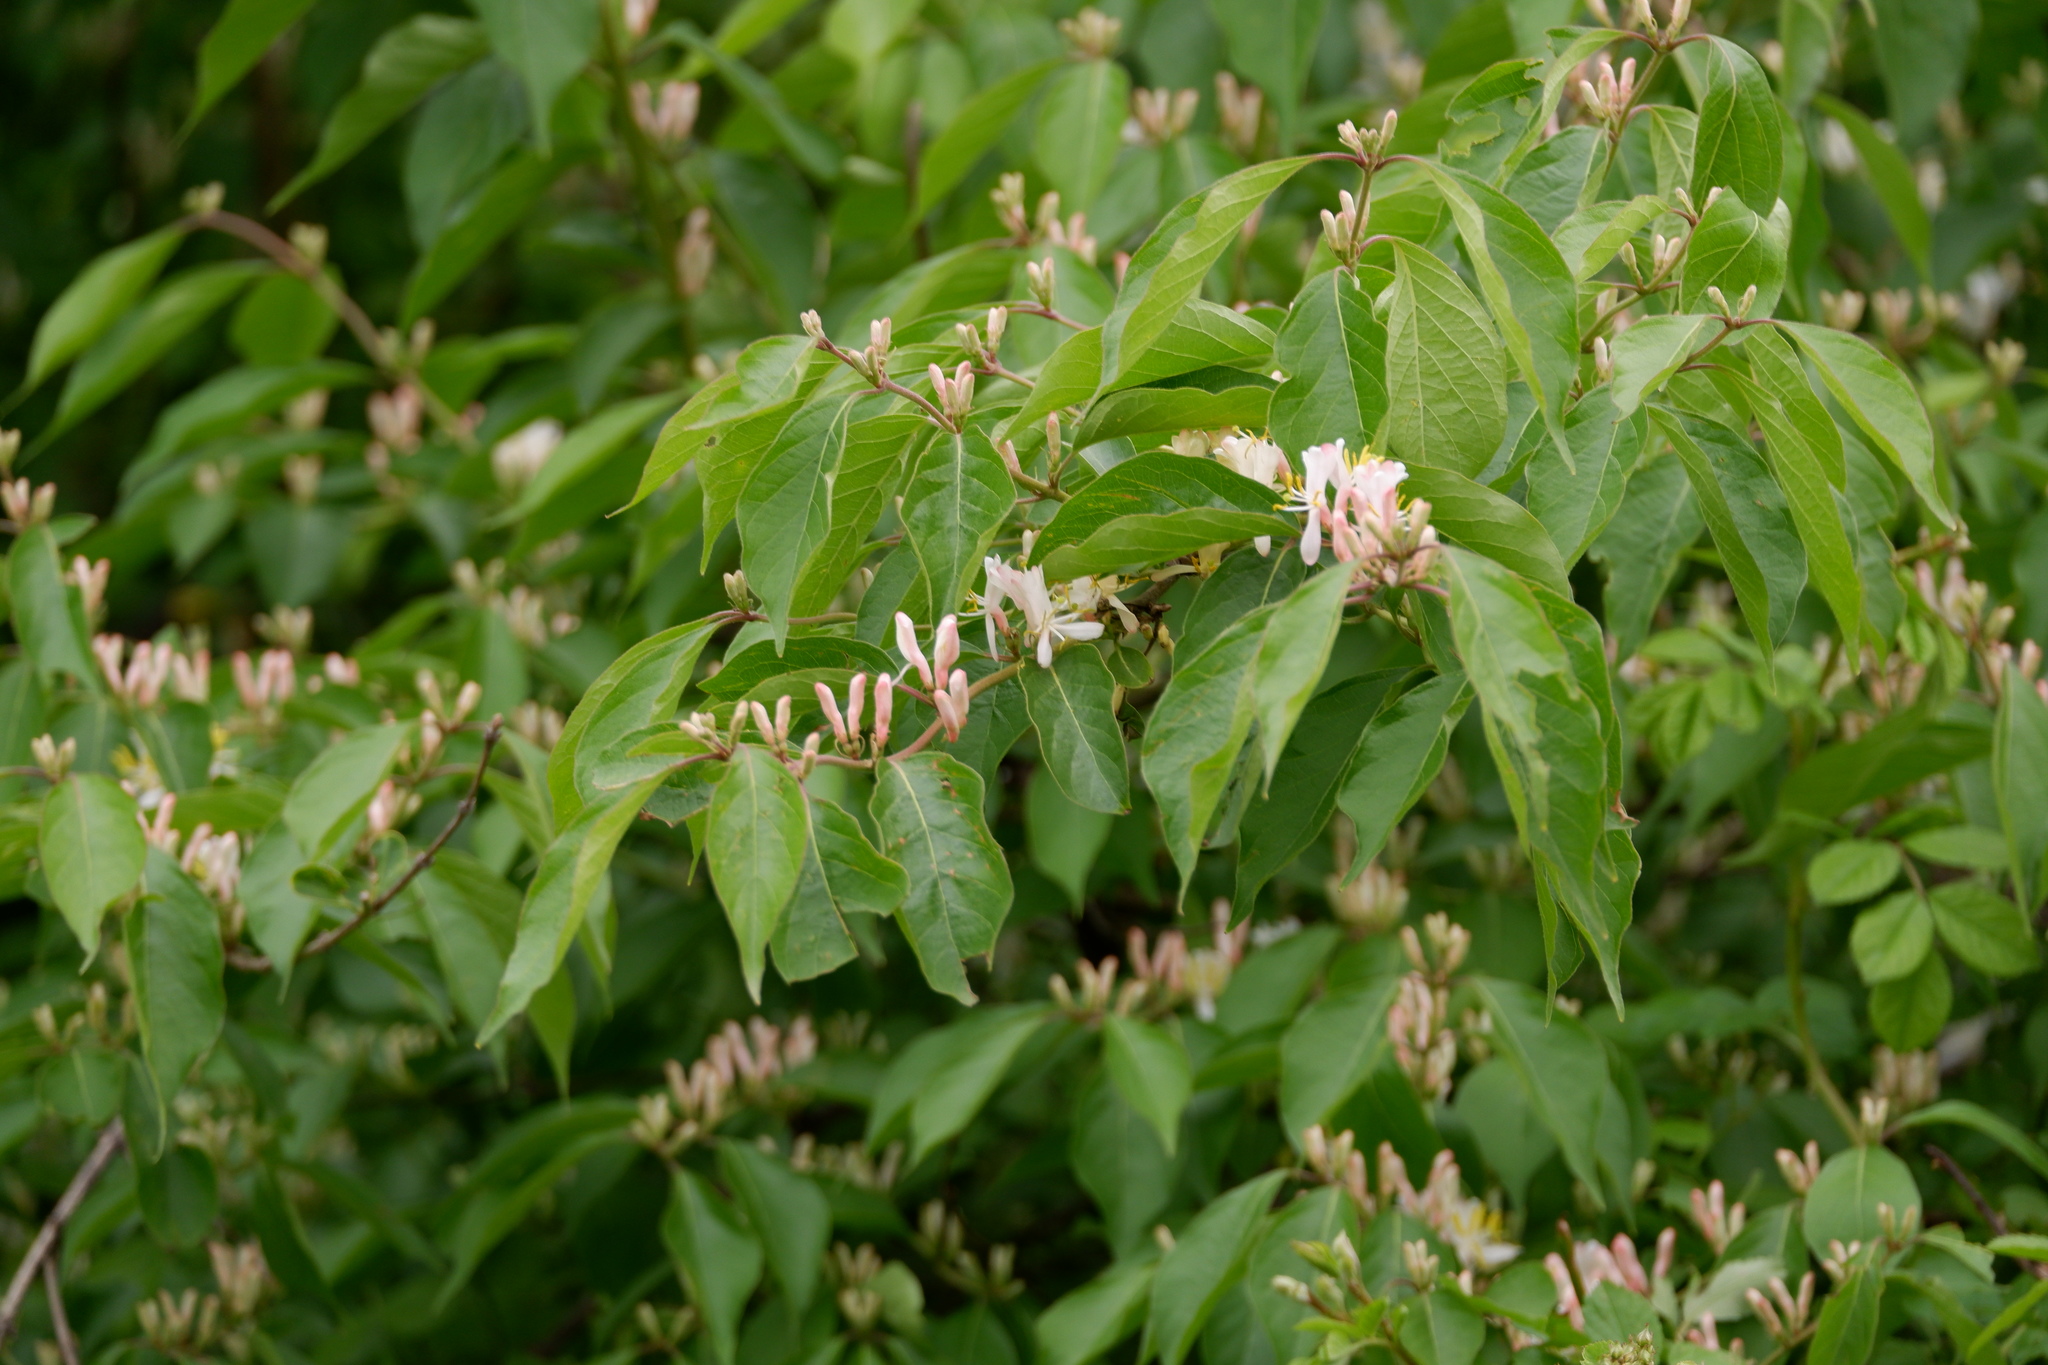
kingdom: Plantae
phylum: Tracheophyta
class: Magnoliopsida
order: Dipsacales
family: Caprifoliaceae
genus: Lonicera
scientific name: Lonicera maackii
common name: Amur honeysuckle
